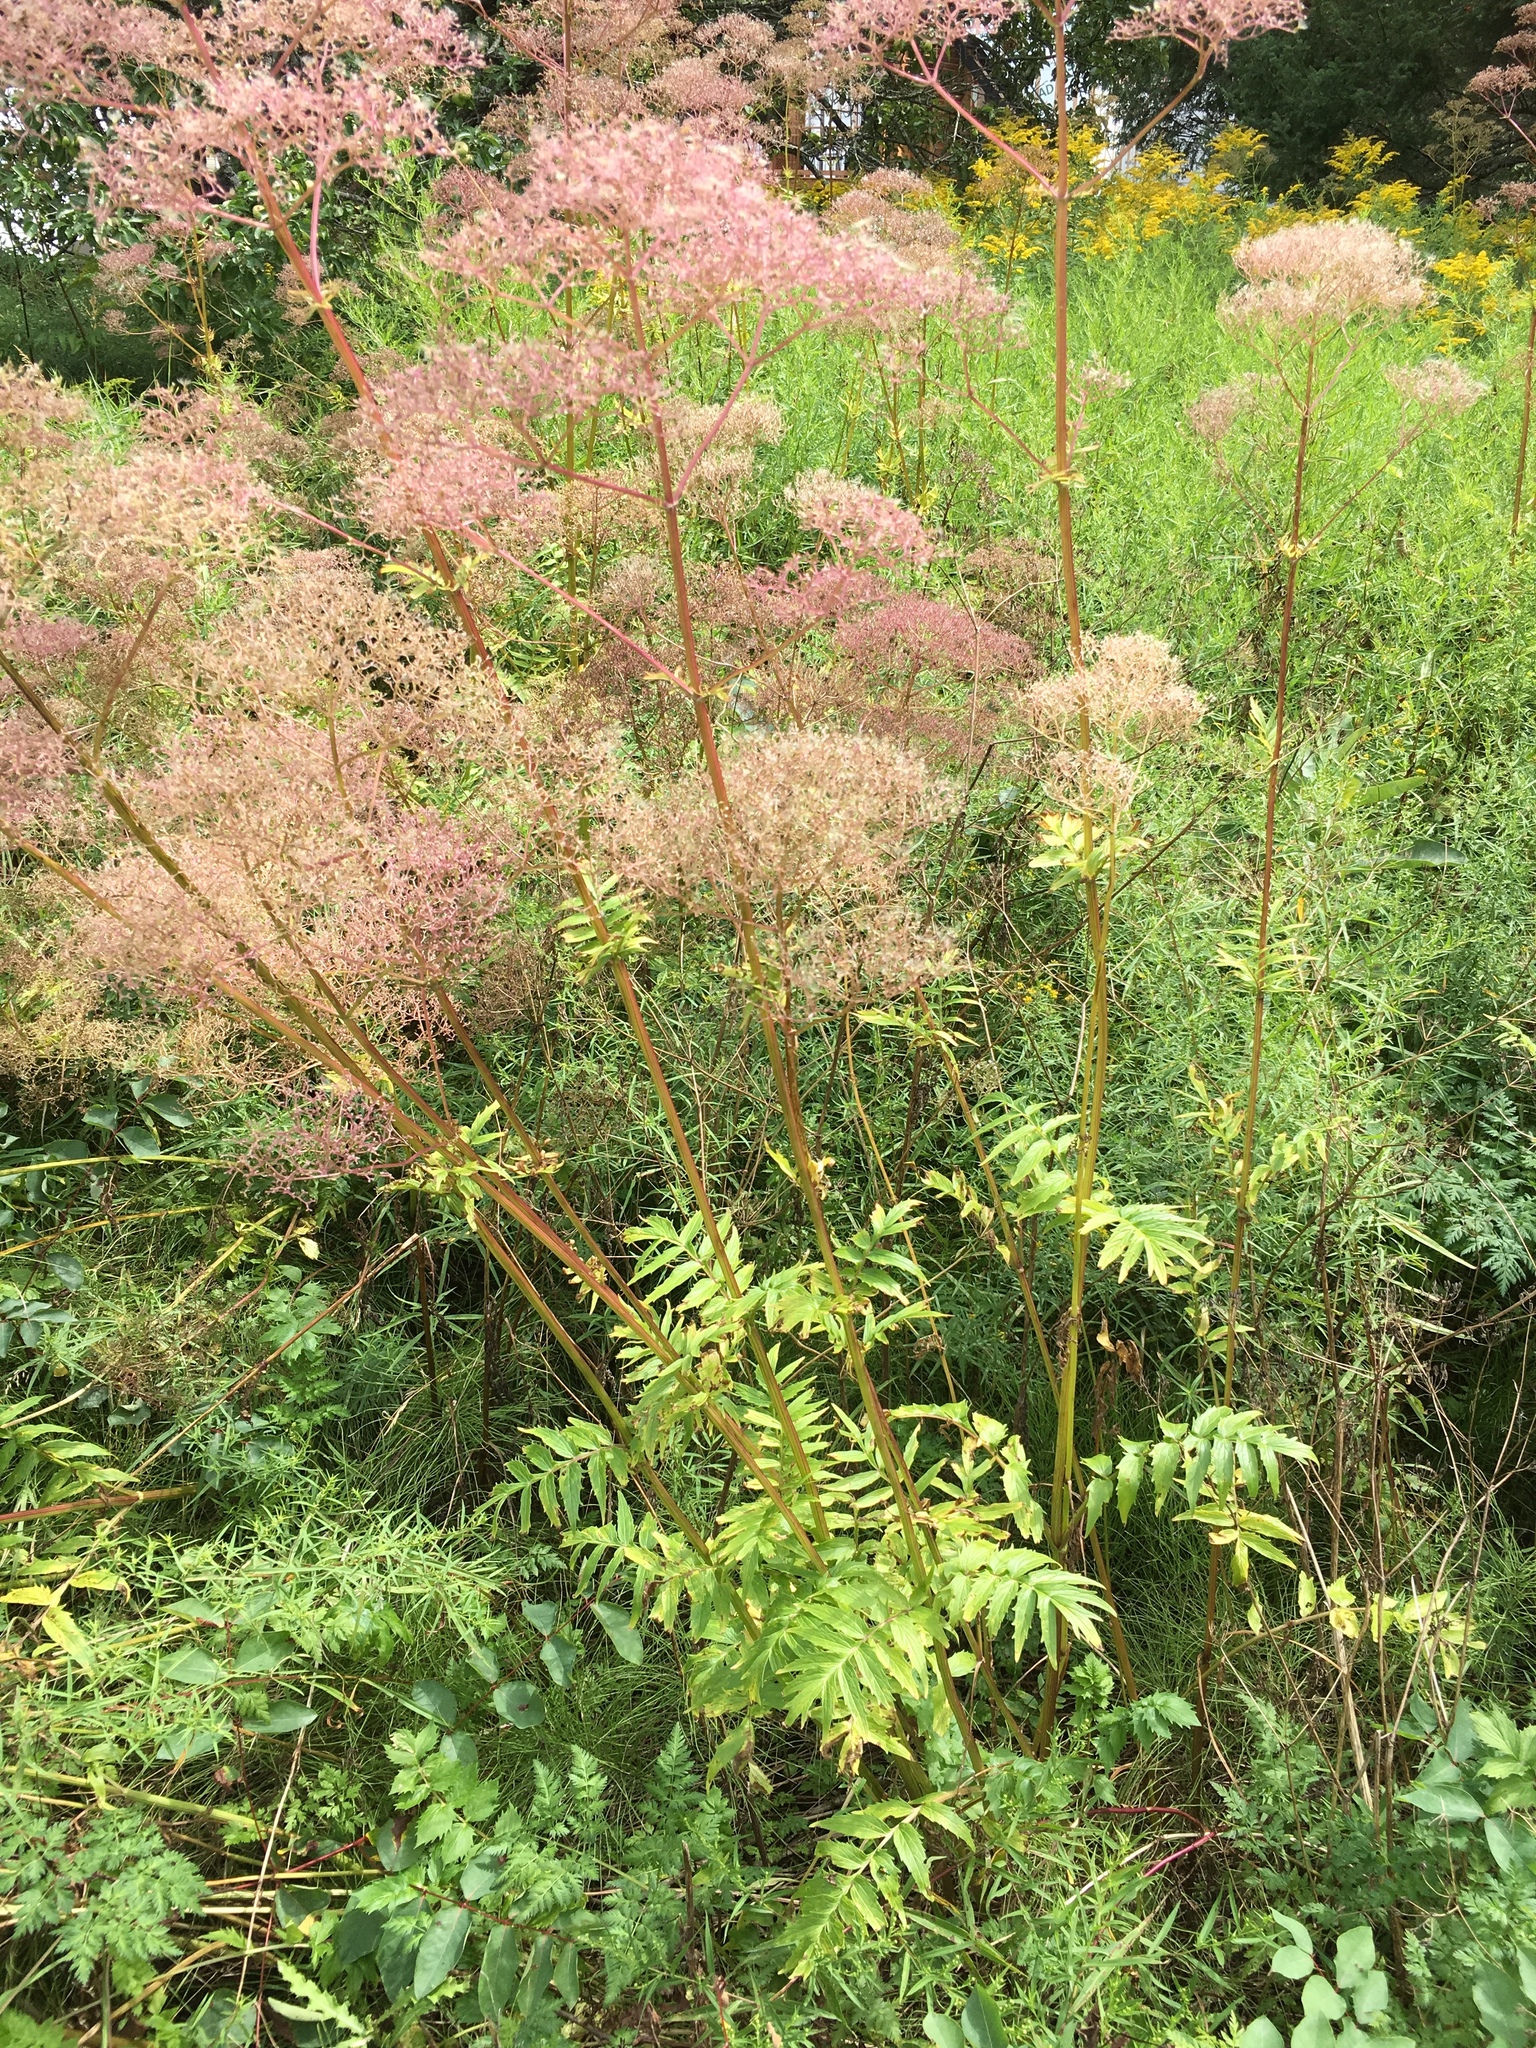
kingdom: Plantae
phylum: Tracheophyta
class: Magnoliopsida
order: Dipsacales
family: Caprifoliaceae
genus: Valeriana
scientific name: Valeriana officinalis
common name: Common valerian
